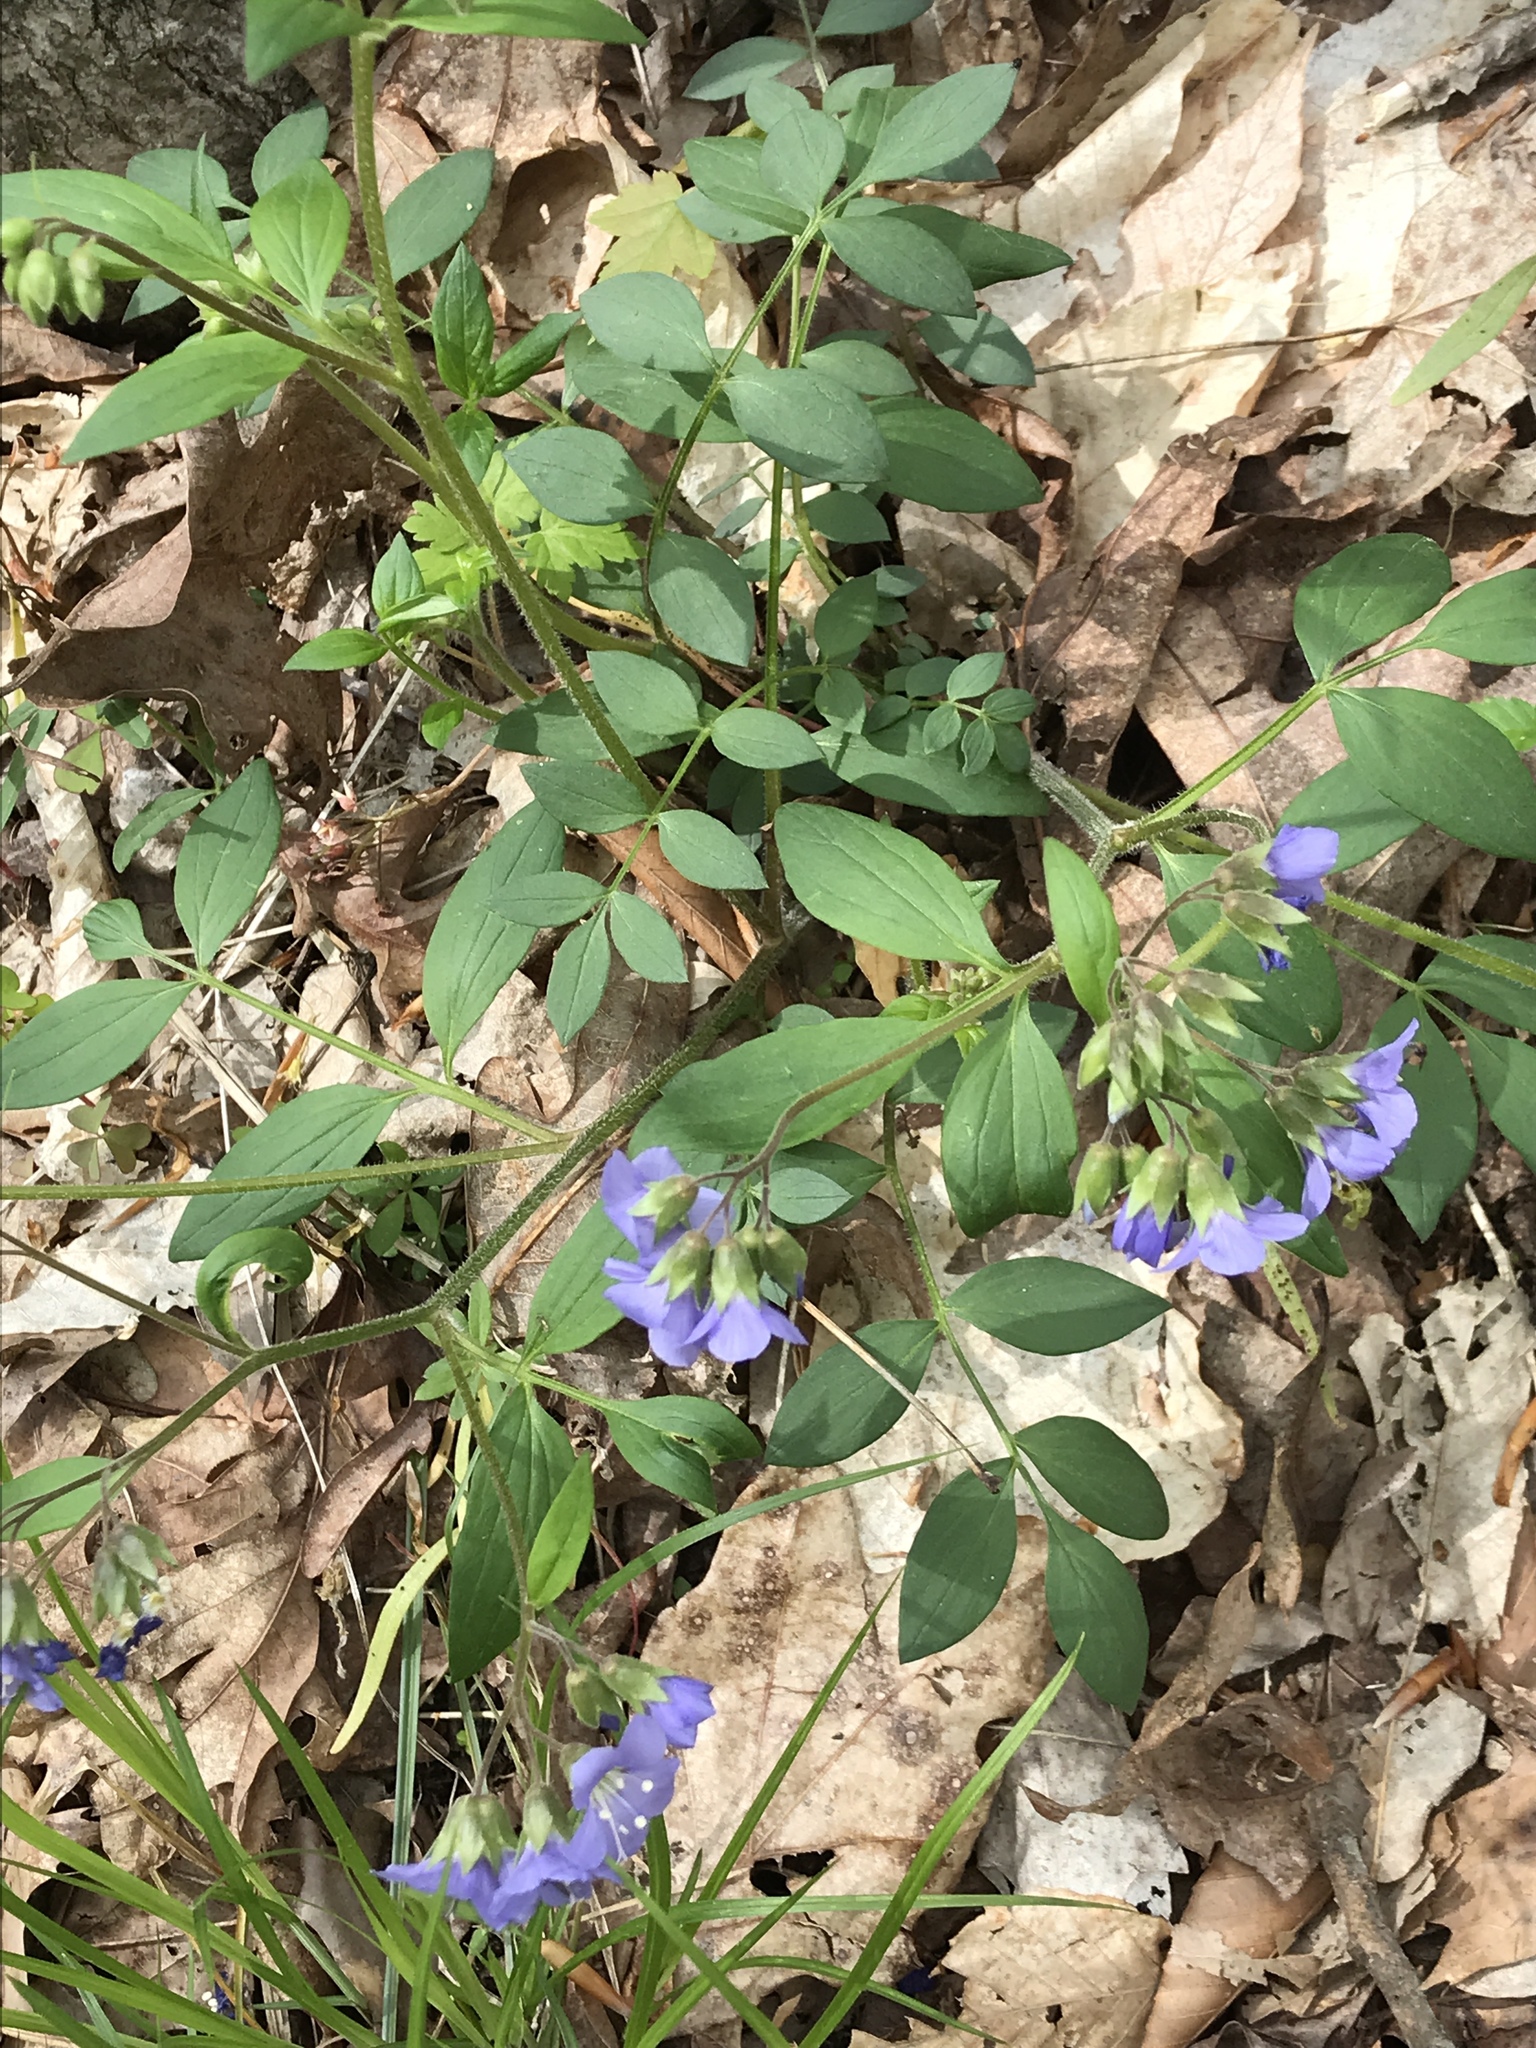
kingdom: Plantae
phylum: Tracheophyta
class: Magnoliopsida
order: Ericales
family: Polemoniaceae
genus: Polemonium
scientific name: Polemonium reptans
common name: Creeping jacob's-ladder
